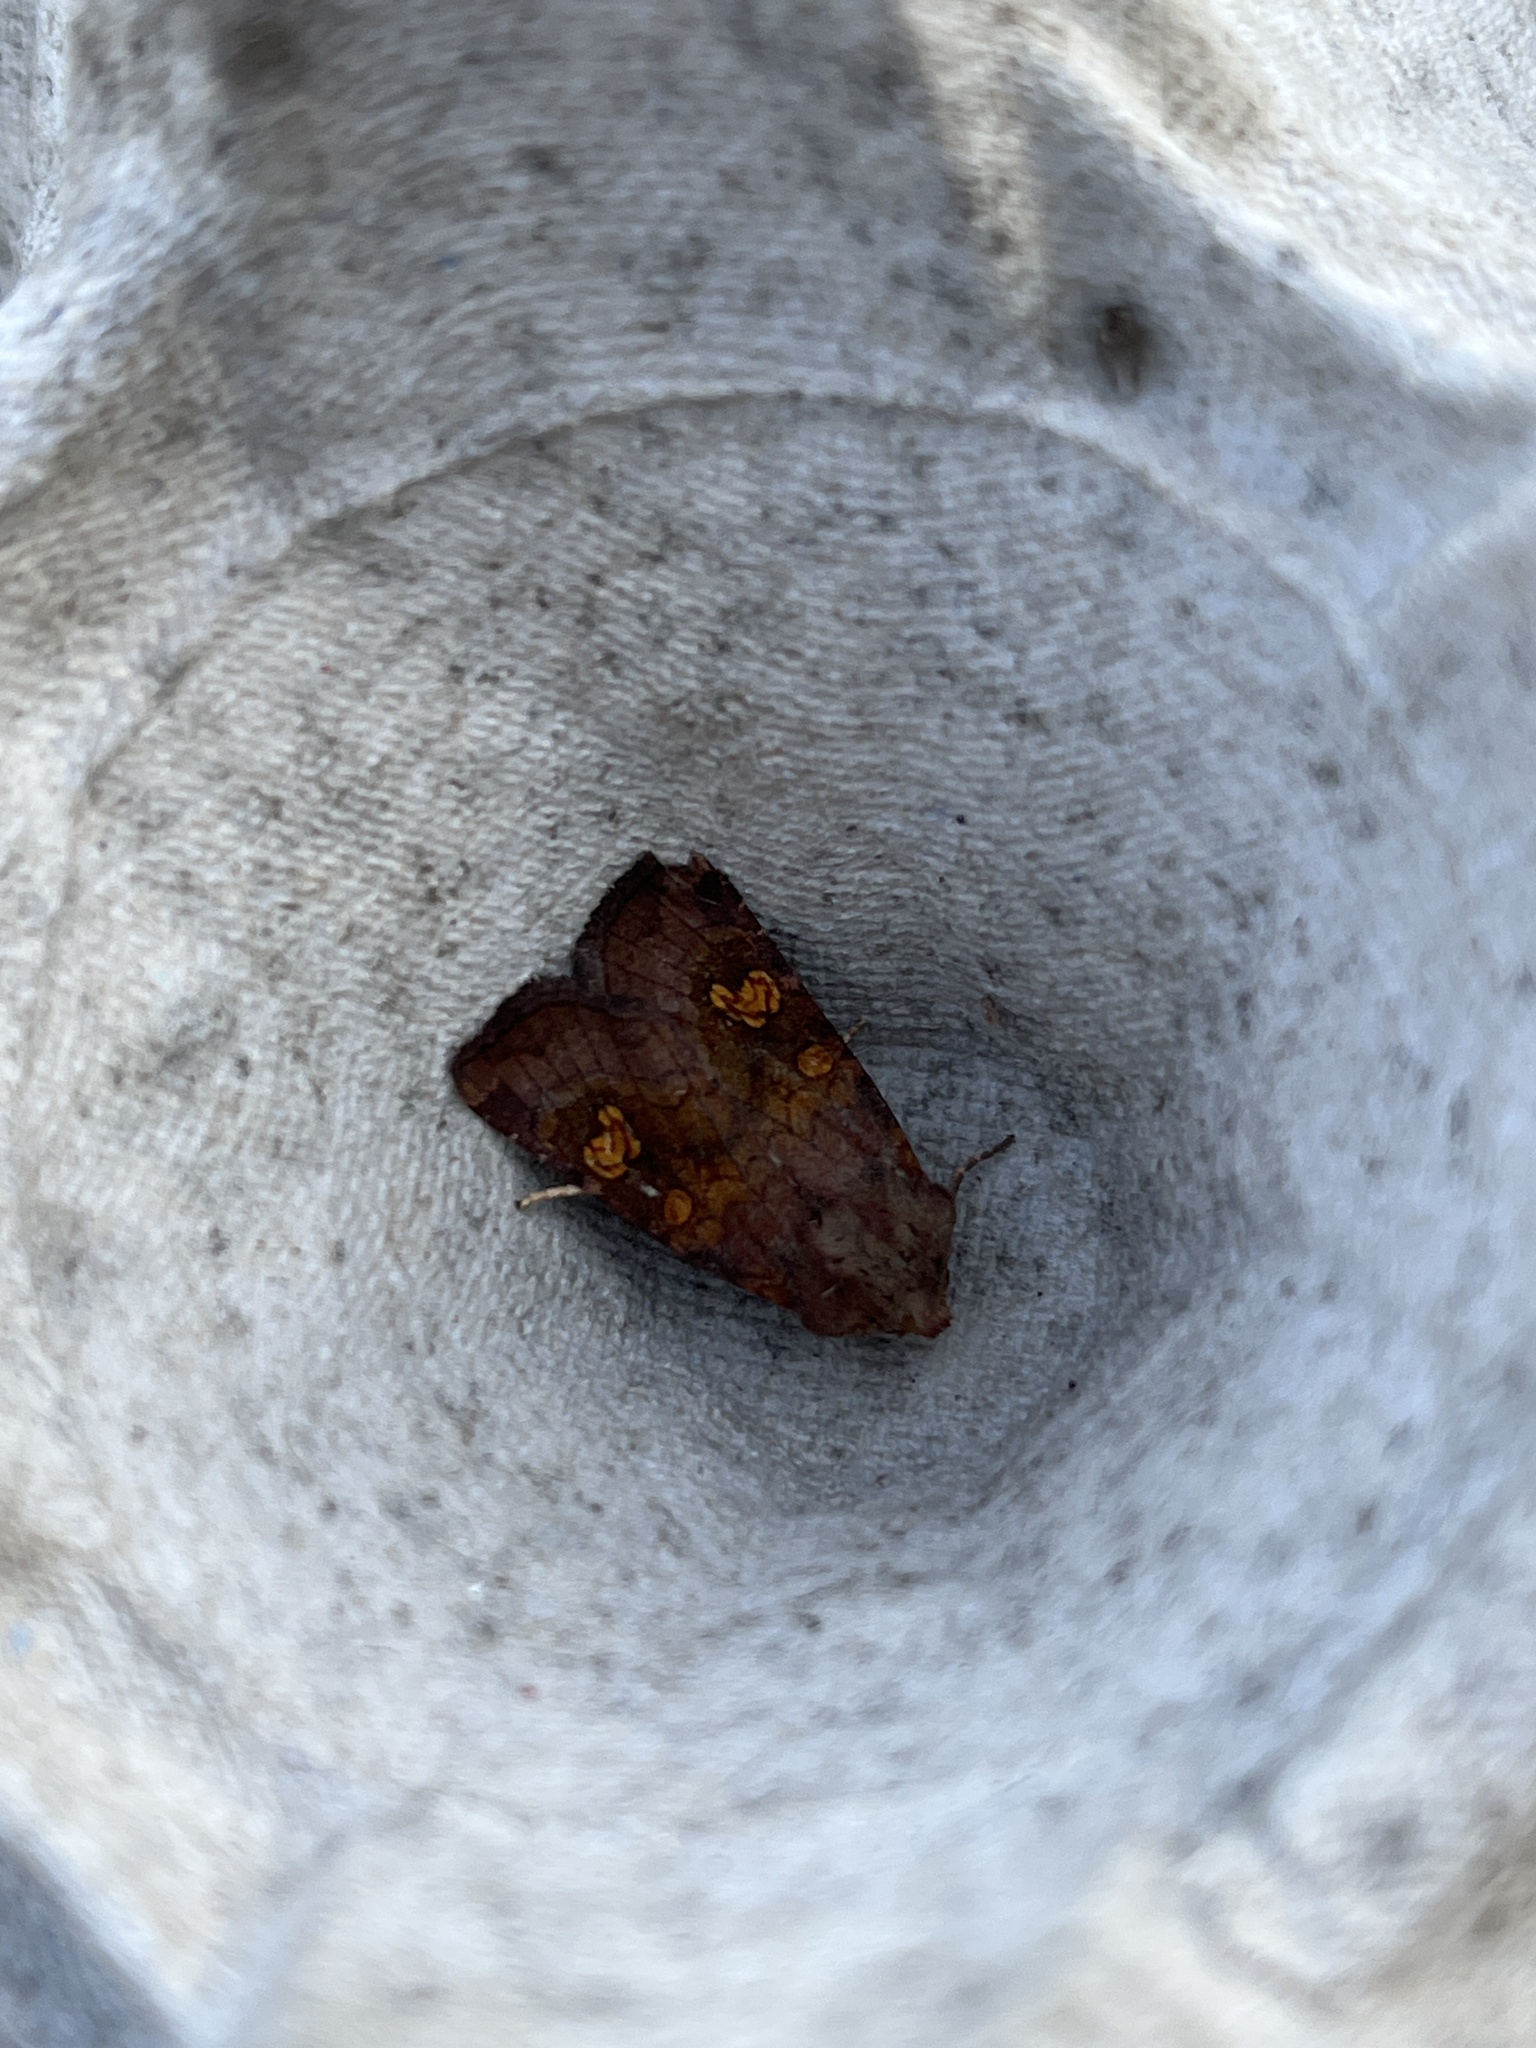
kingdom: Animalia
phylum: Arthropoda
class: Insecta
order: Lepidoptera
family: Noctuidae
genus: Amphipoea
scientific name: Amphipoea
